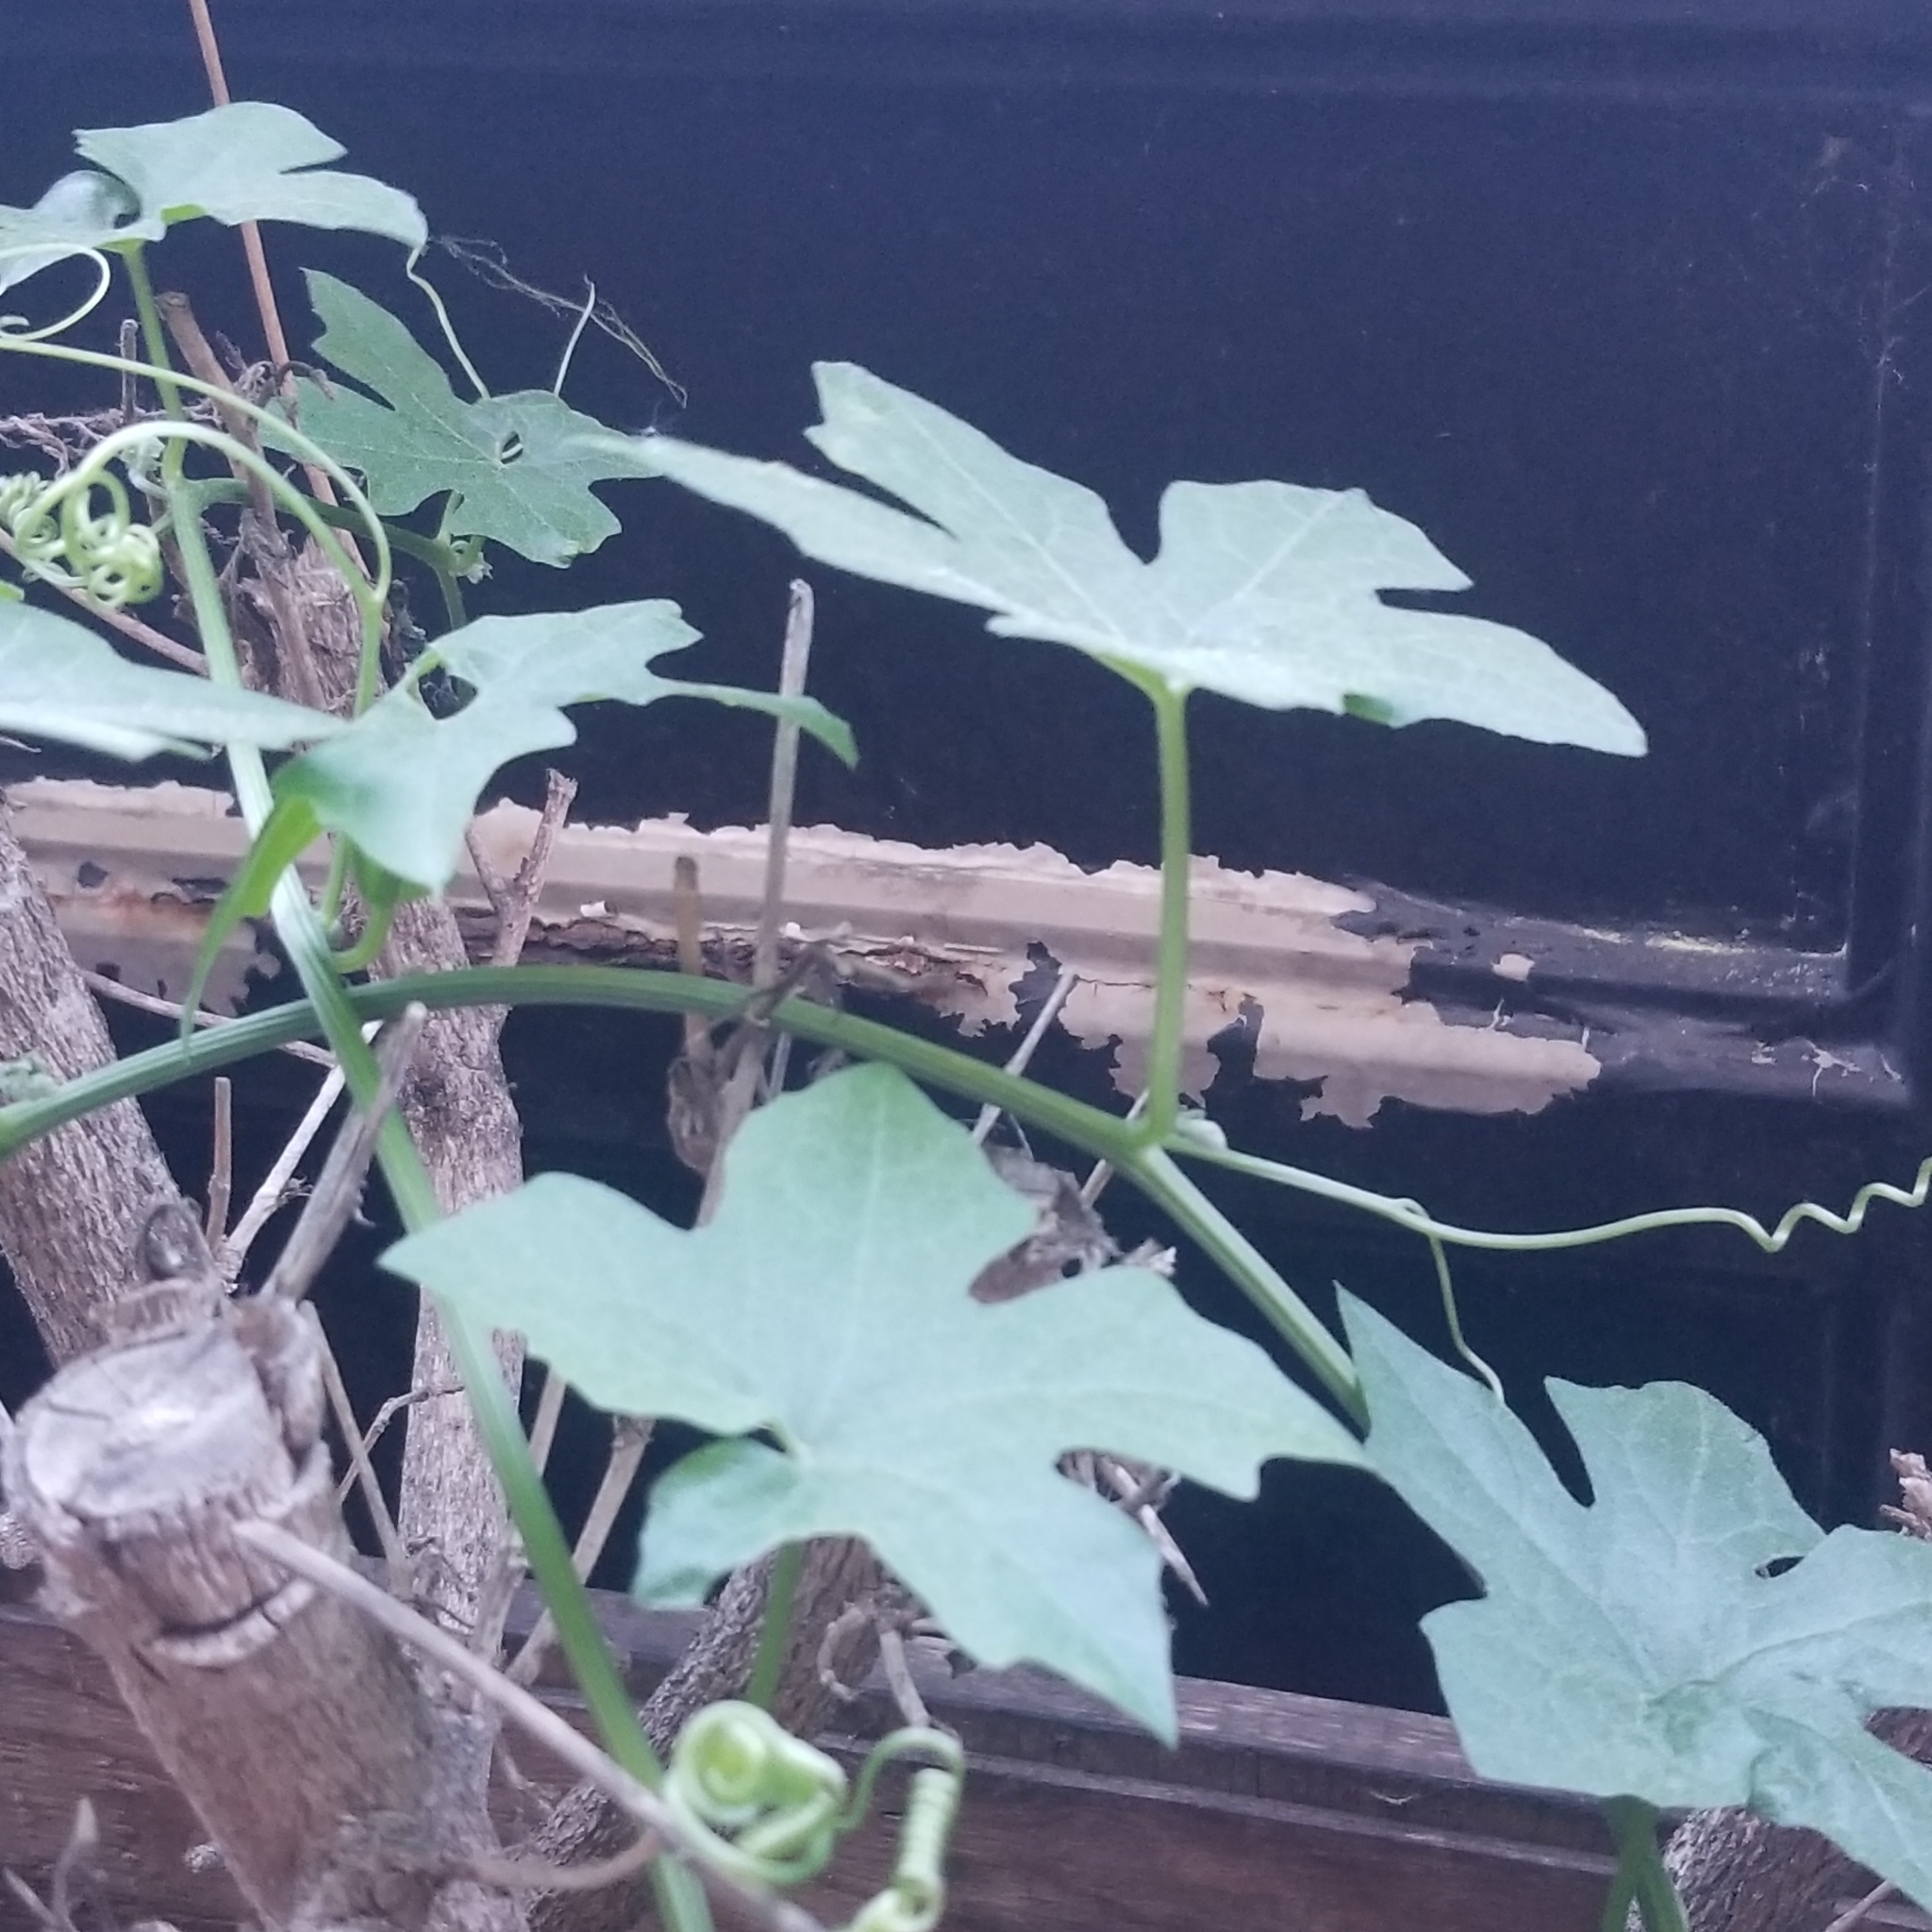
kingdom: Plantae
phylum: Tracheophyta
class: Magnoliopsida
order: Cucurbitales
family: Cucurbitaceae
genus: Marah
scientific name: Marah macrocarpa
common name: Cucamonga manroot
